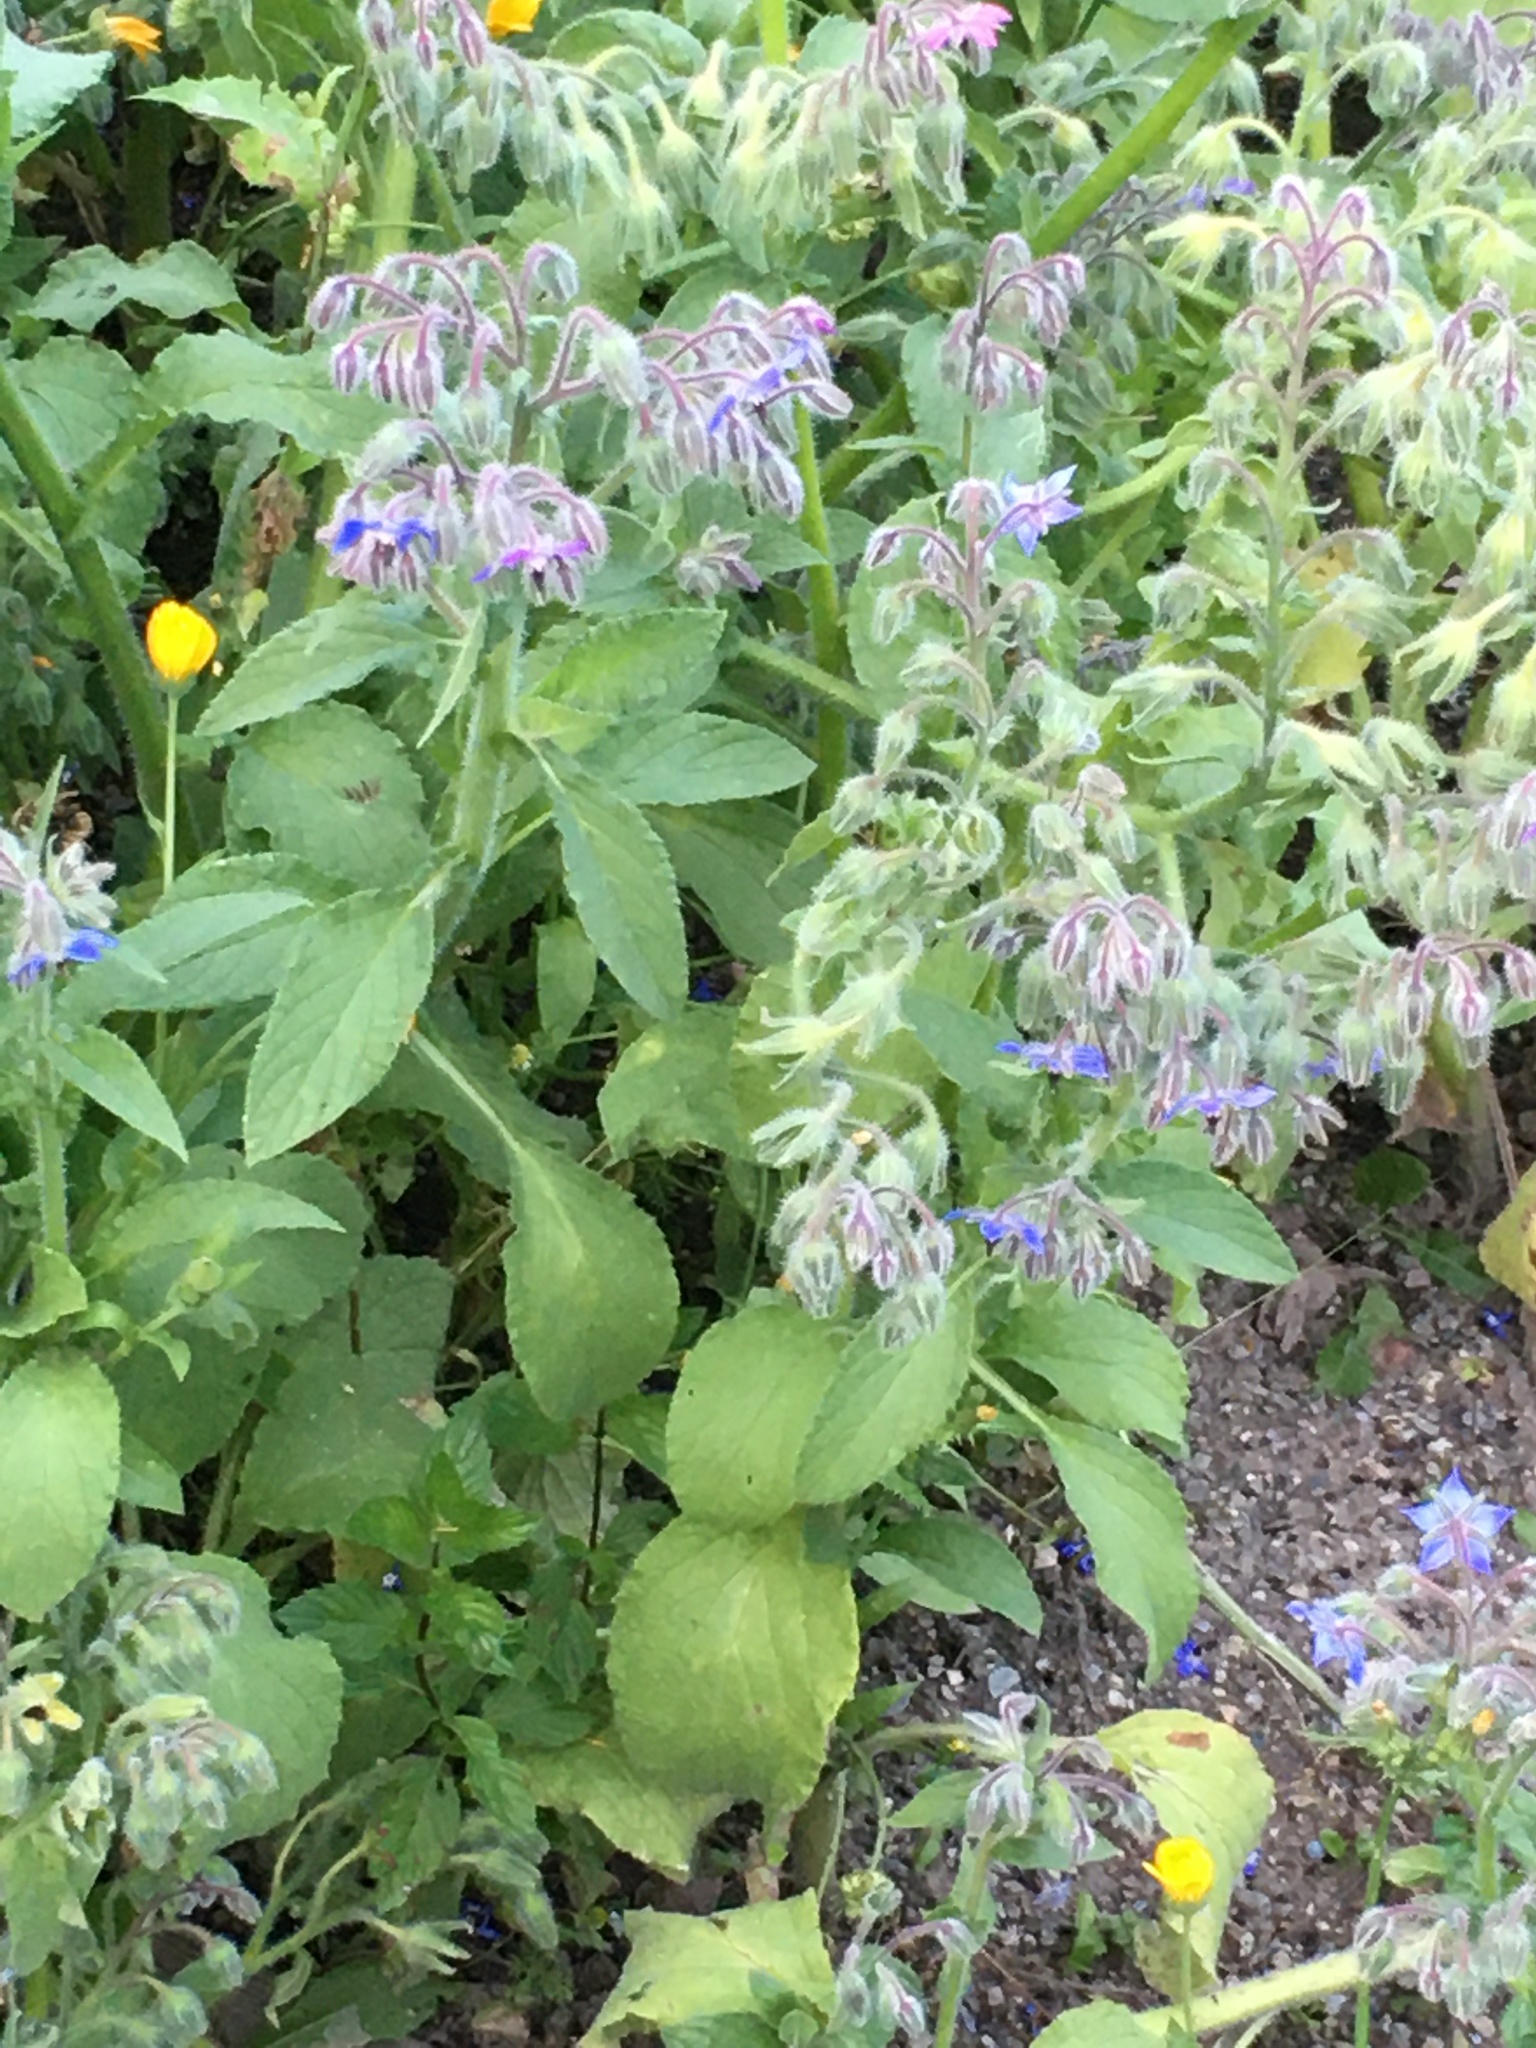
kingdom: Plantae
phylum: Tracheophyta
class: Magnoliopsida
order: Boraginales
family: Boraginaceae
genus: Borago
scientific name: Borago officinalis
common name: Borage
